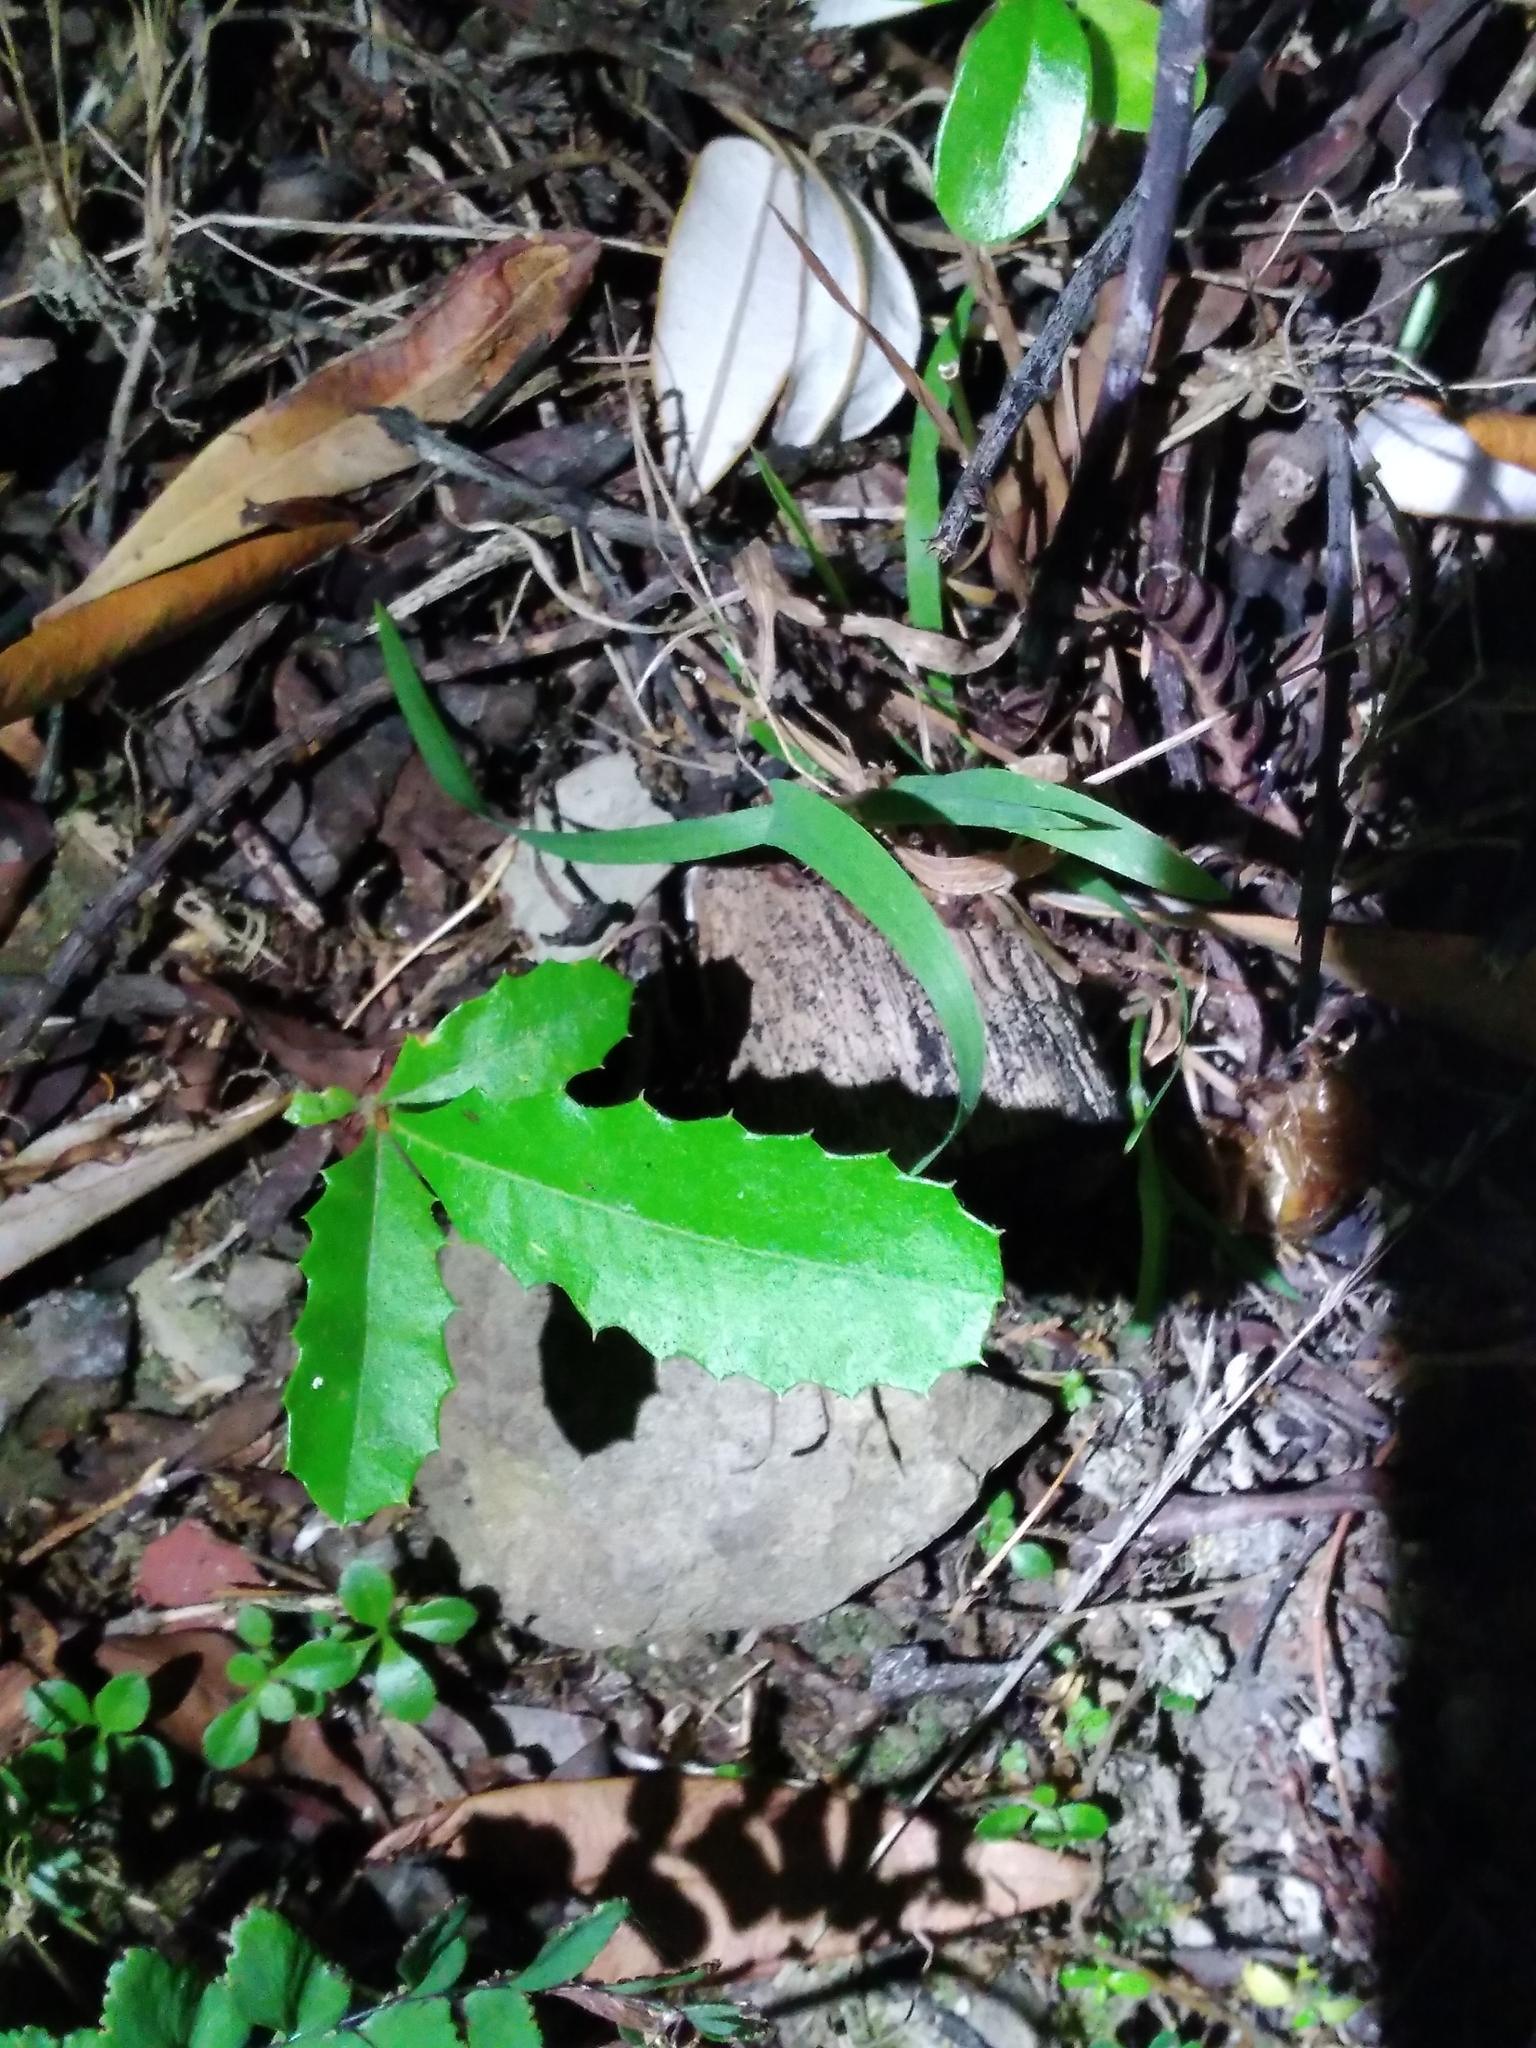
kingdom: Plantae
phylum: Tracheophyta
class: Magnoliopsida
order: Proteales
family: Proteaceae
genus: Banksia
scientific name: Banksia integrifolia
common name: White-honeysuckle
